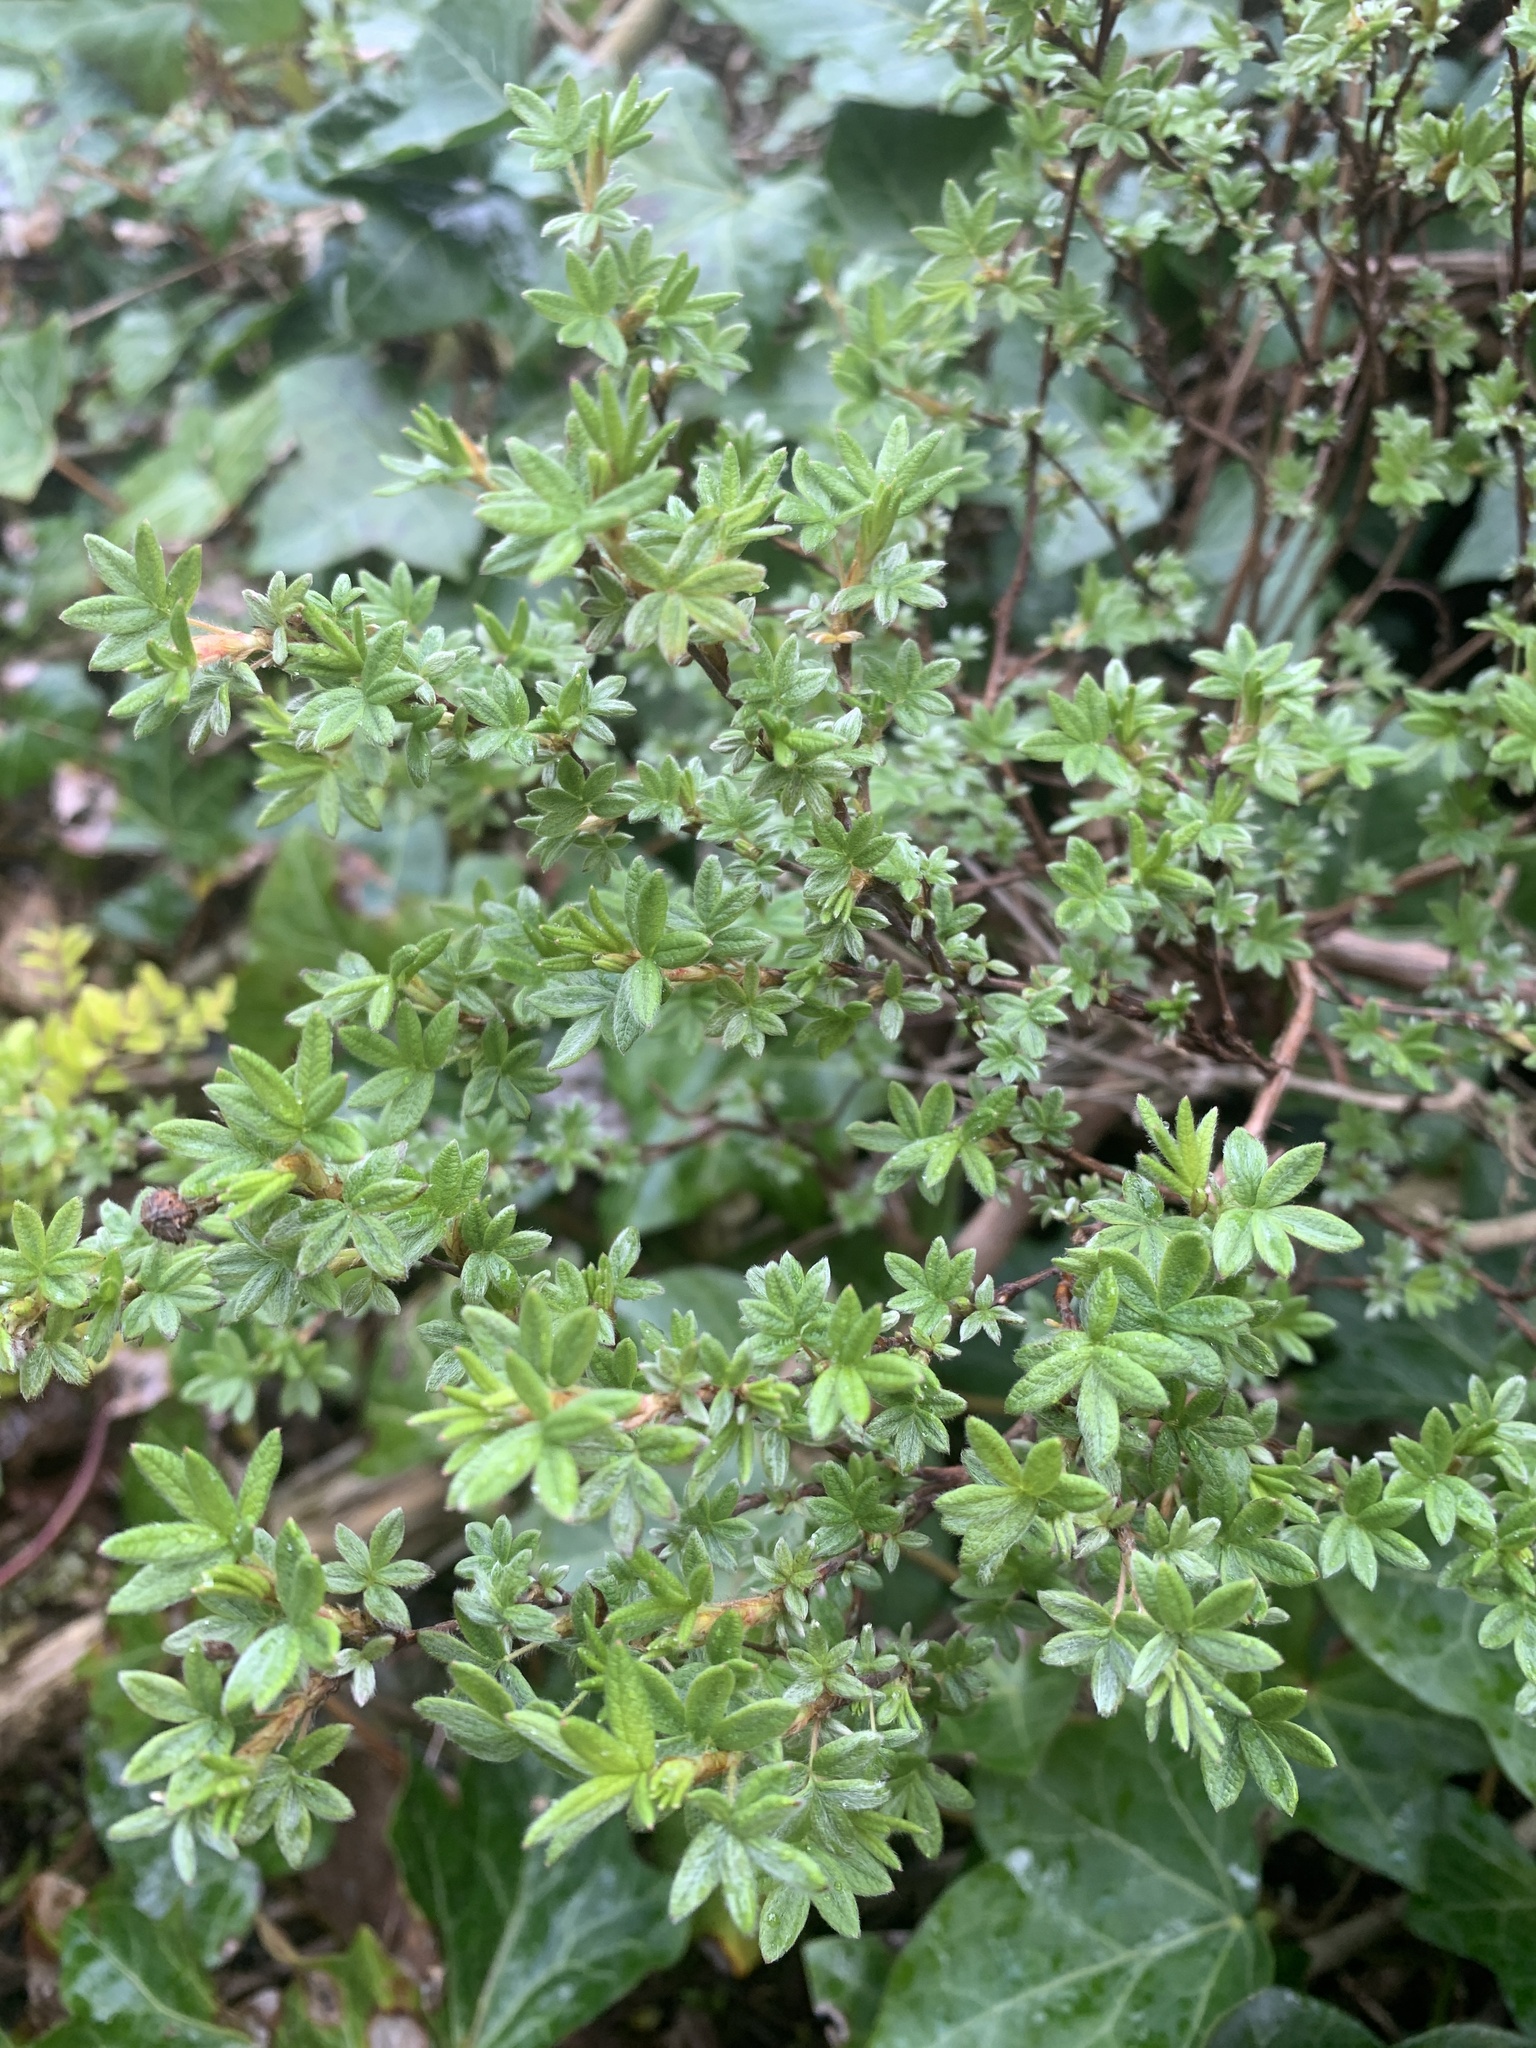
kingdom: Plantae
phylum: Tracheophyta
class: Magnoliopsida
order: Rosales
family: Rosaceae
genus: Dasiphora
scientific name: Dasiphora fruticosa
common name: Shrubby cinquefoil
